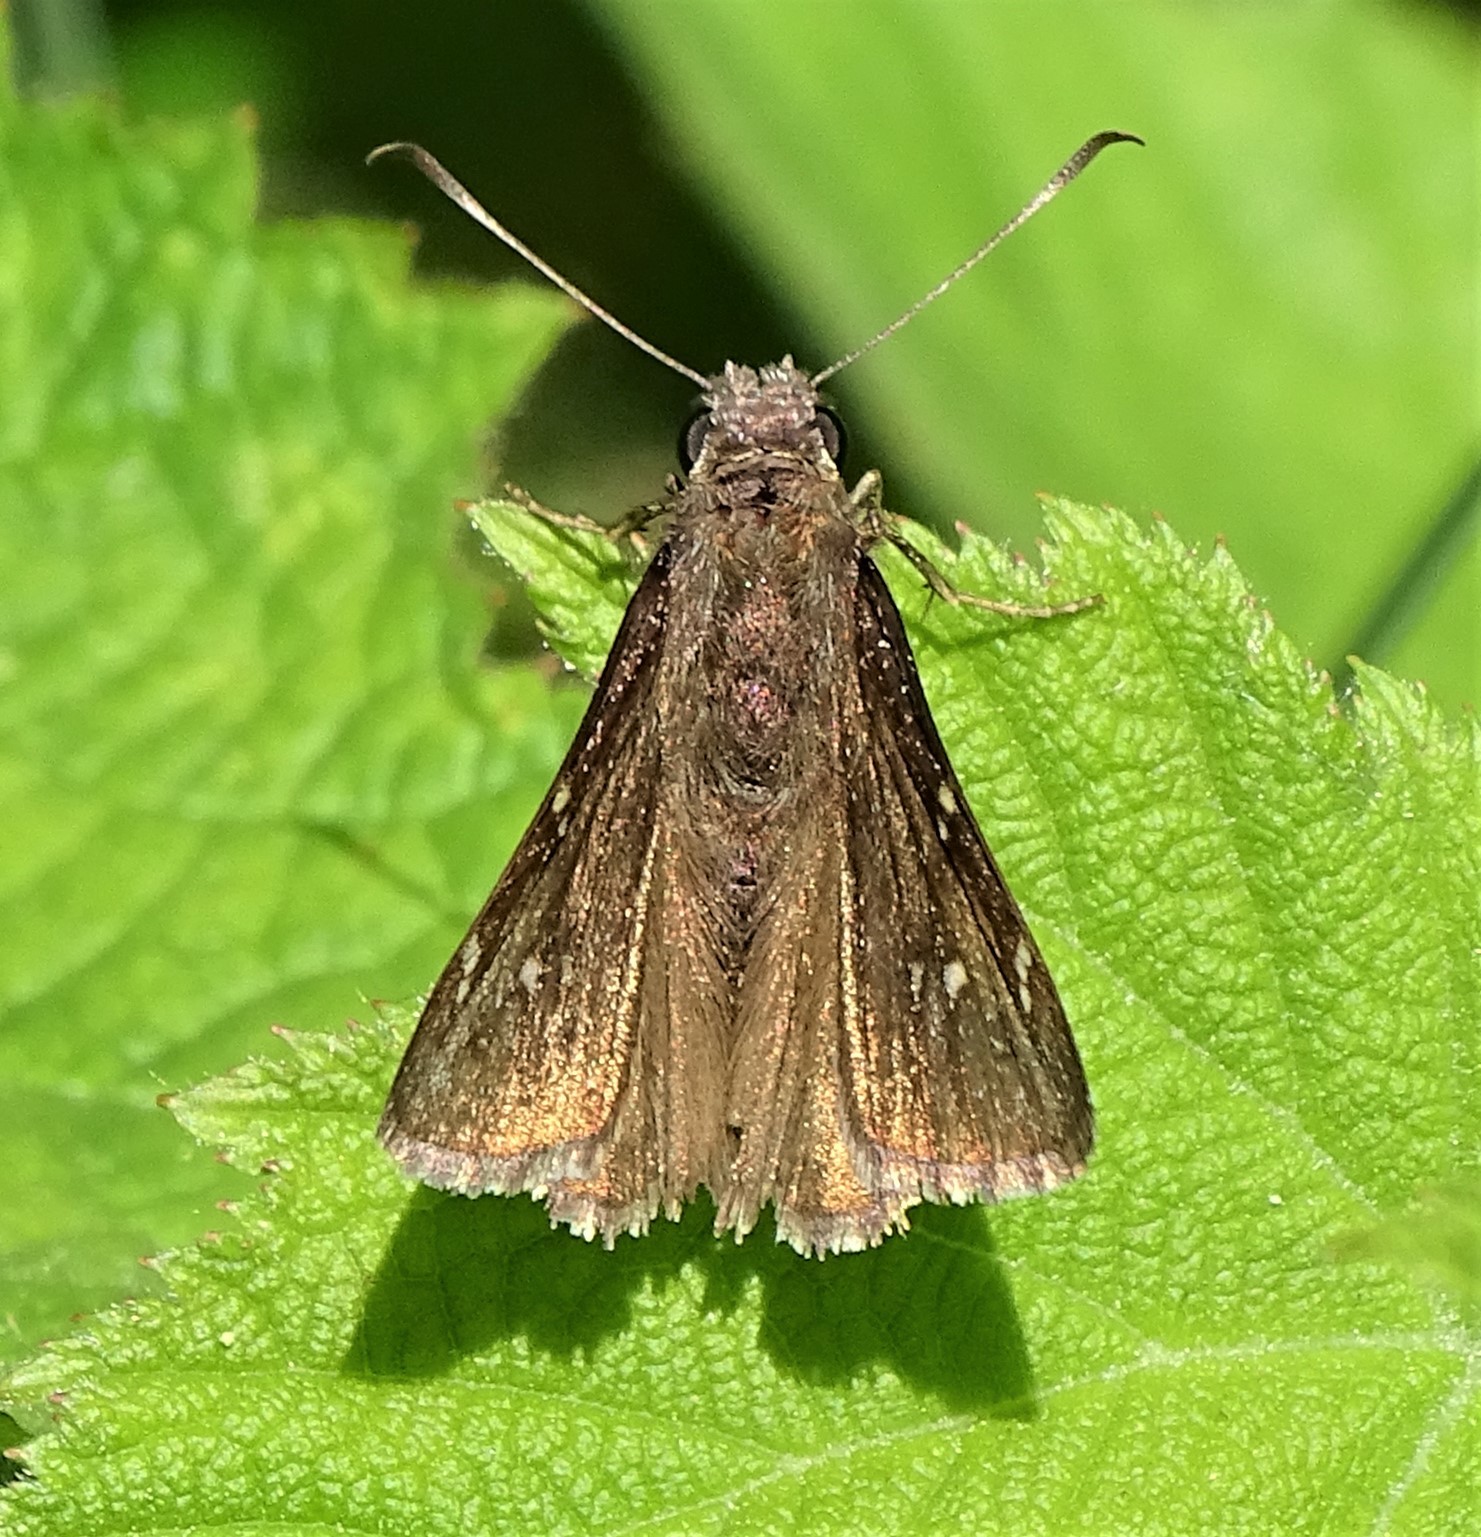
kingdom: Animalia
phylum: Arthropoda
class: Insecta
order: Lepidoptera
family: Hesperiidae
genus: Thorybes
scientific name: Thorybes pylades
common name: Northern cloudywing
